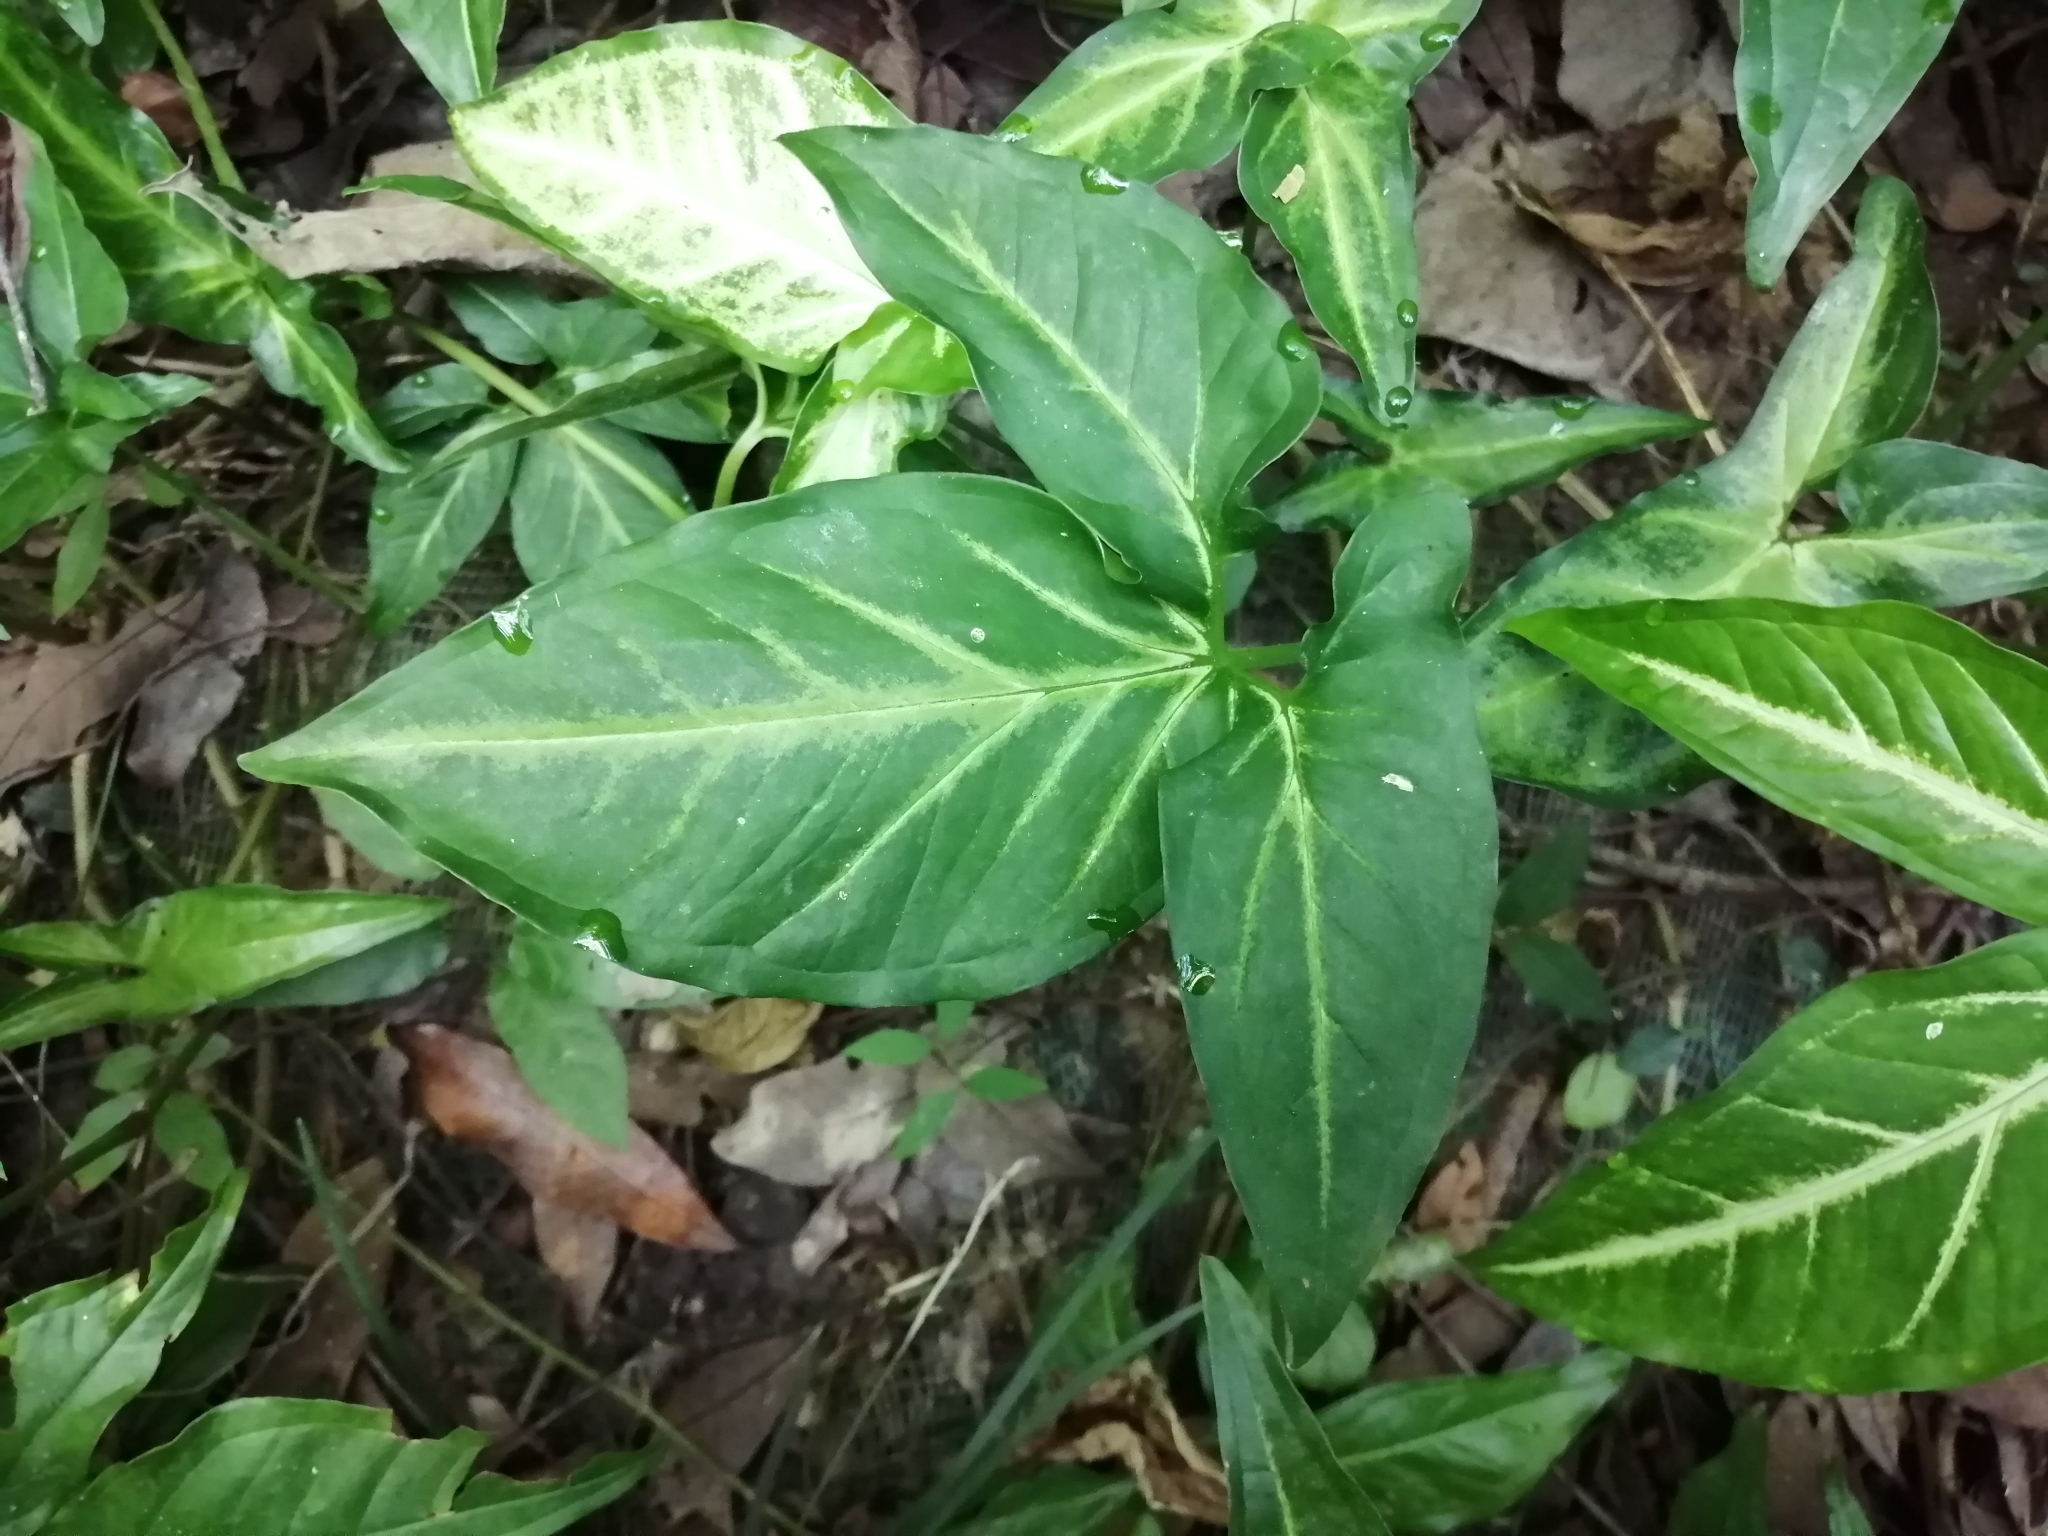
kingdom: Plantae
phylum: Tracheophyta
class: Liliopsida
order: Alismatales
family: Araceae
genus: Syngonium
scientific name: Syngonium podophyllum
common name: American evergreen
